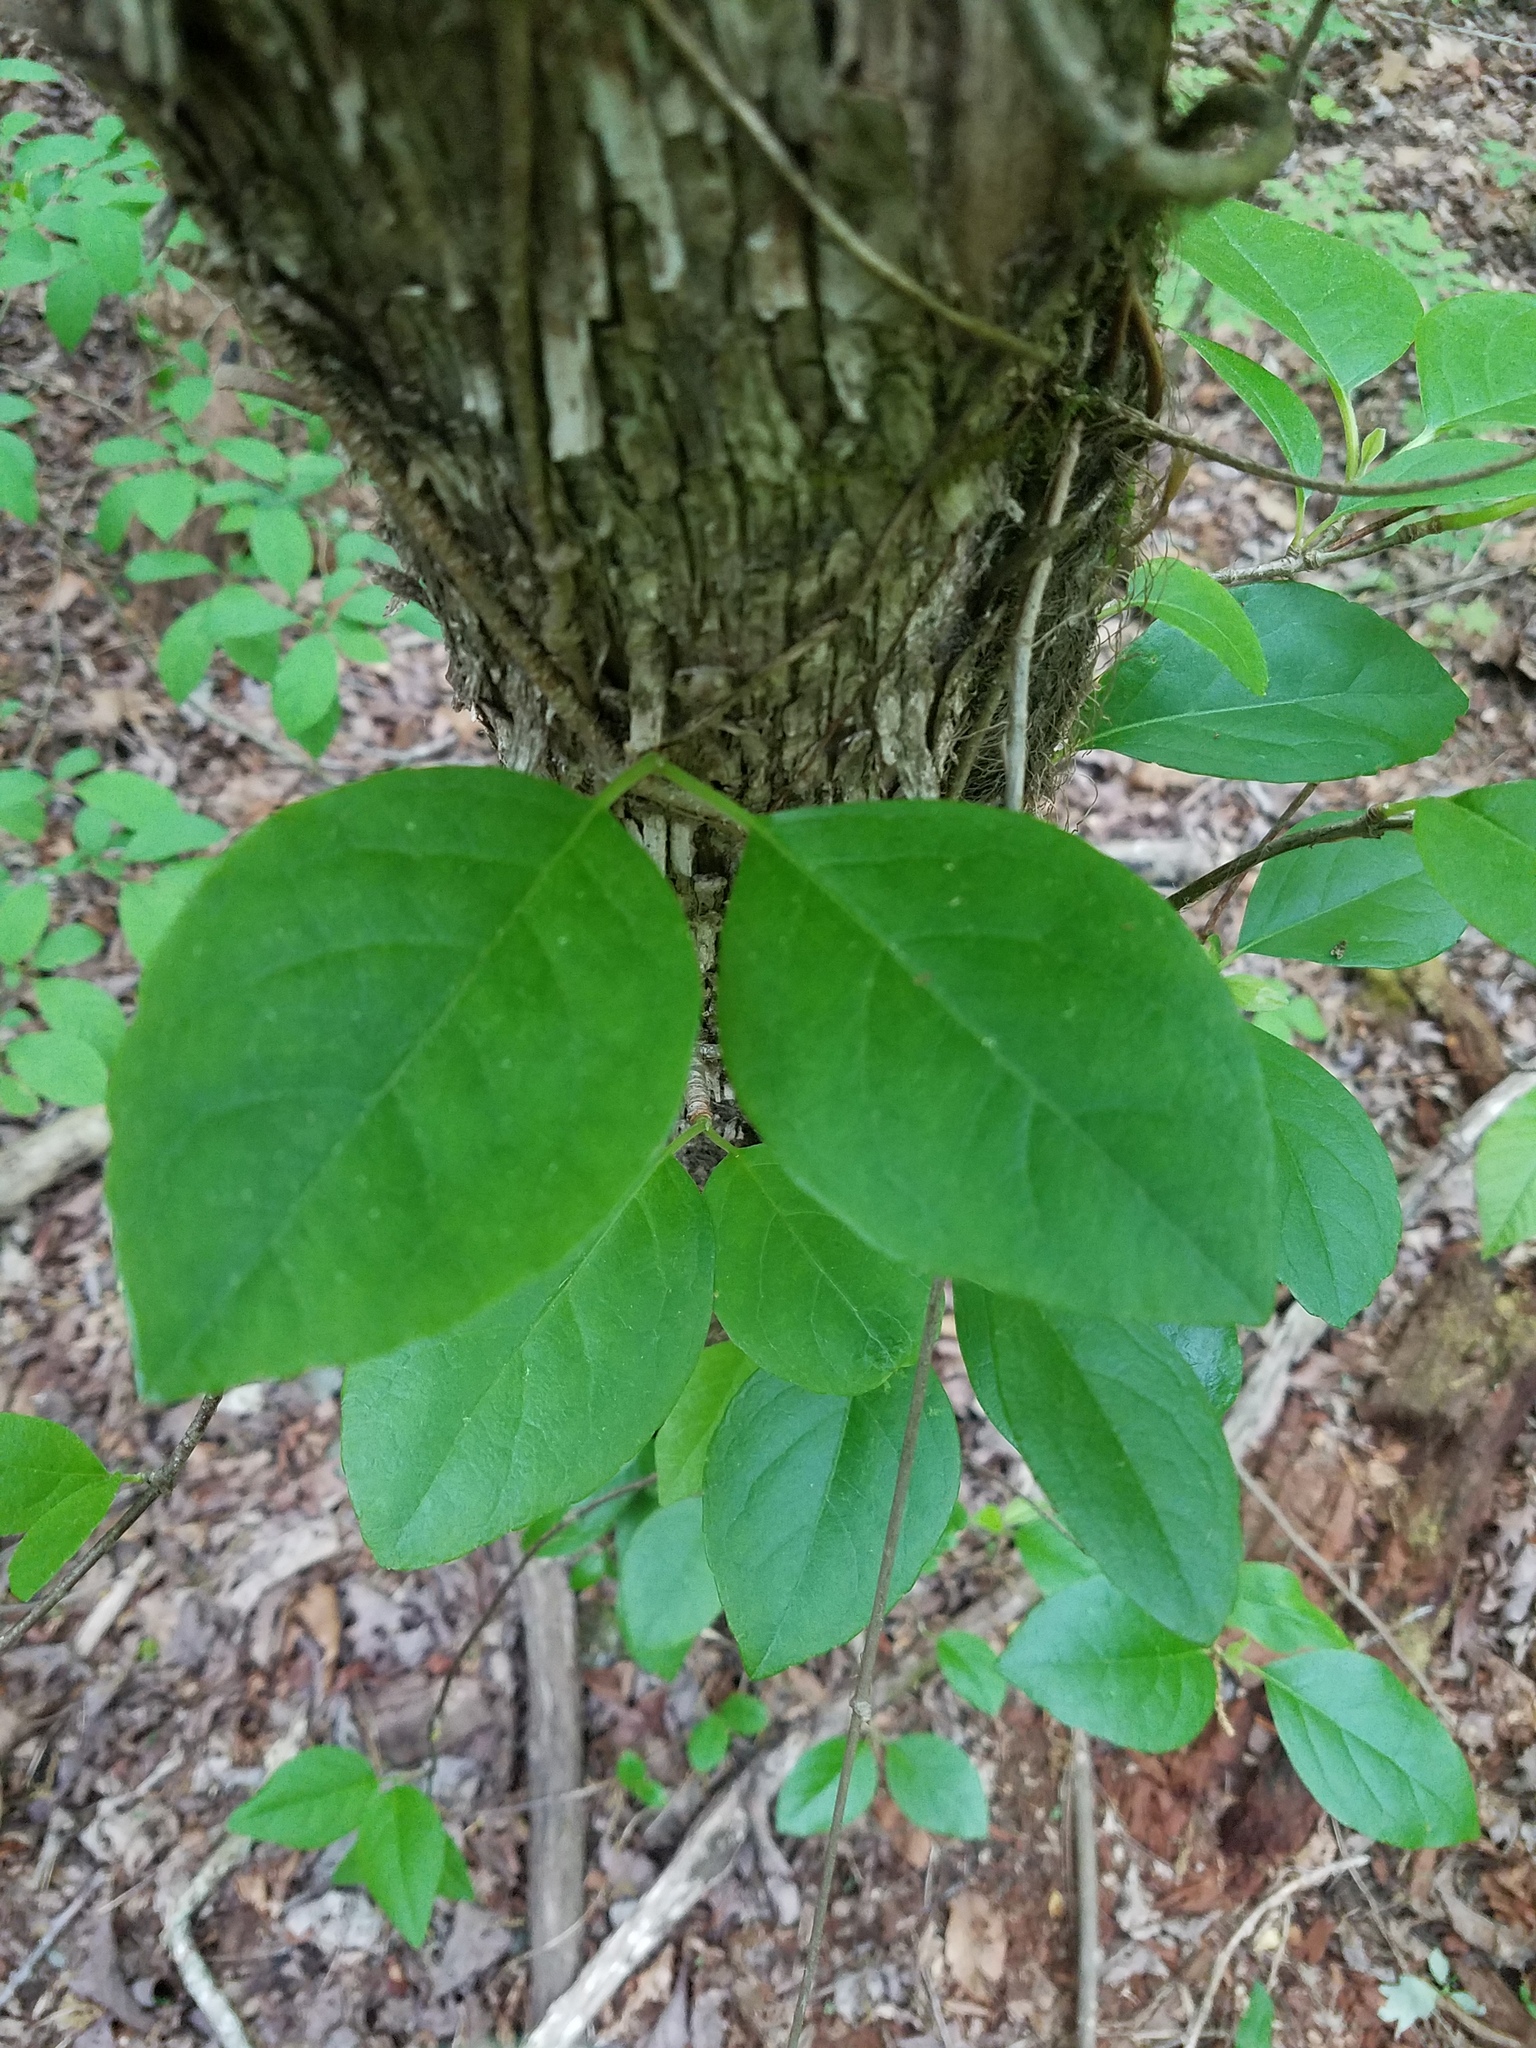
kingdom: Plantae
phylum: Tracheophyta
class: Magnoliopsida
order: Cornales
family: Hydrangeaceae
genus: Hydrangea
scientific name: Hydrangea barbara
